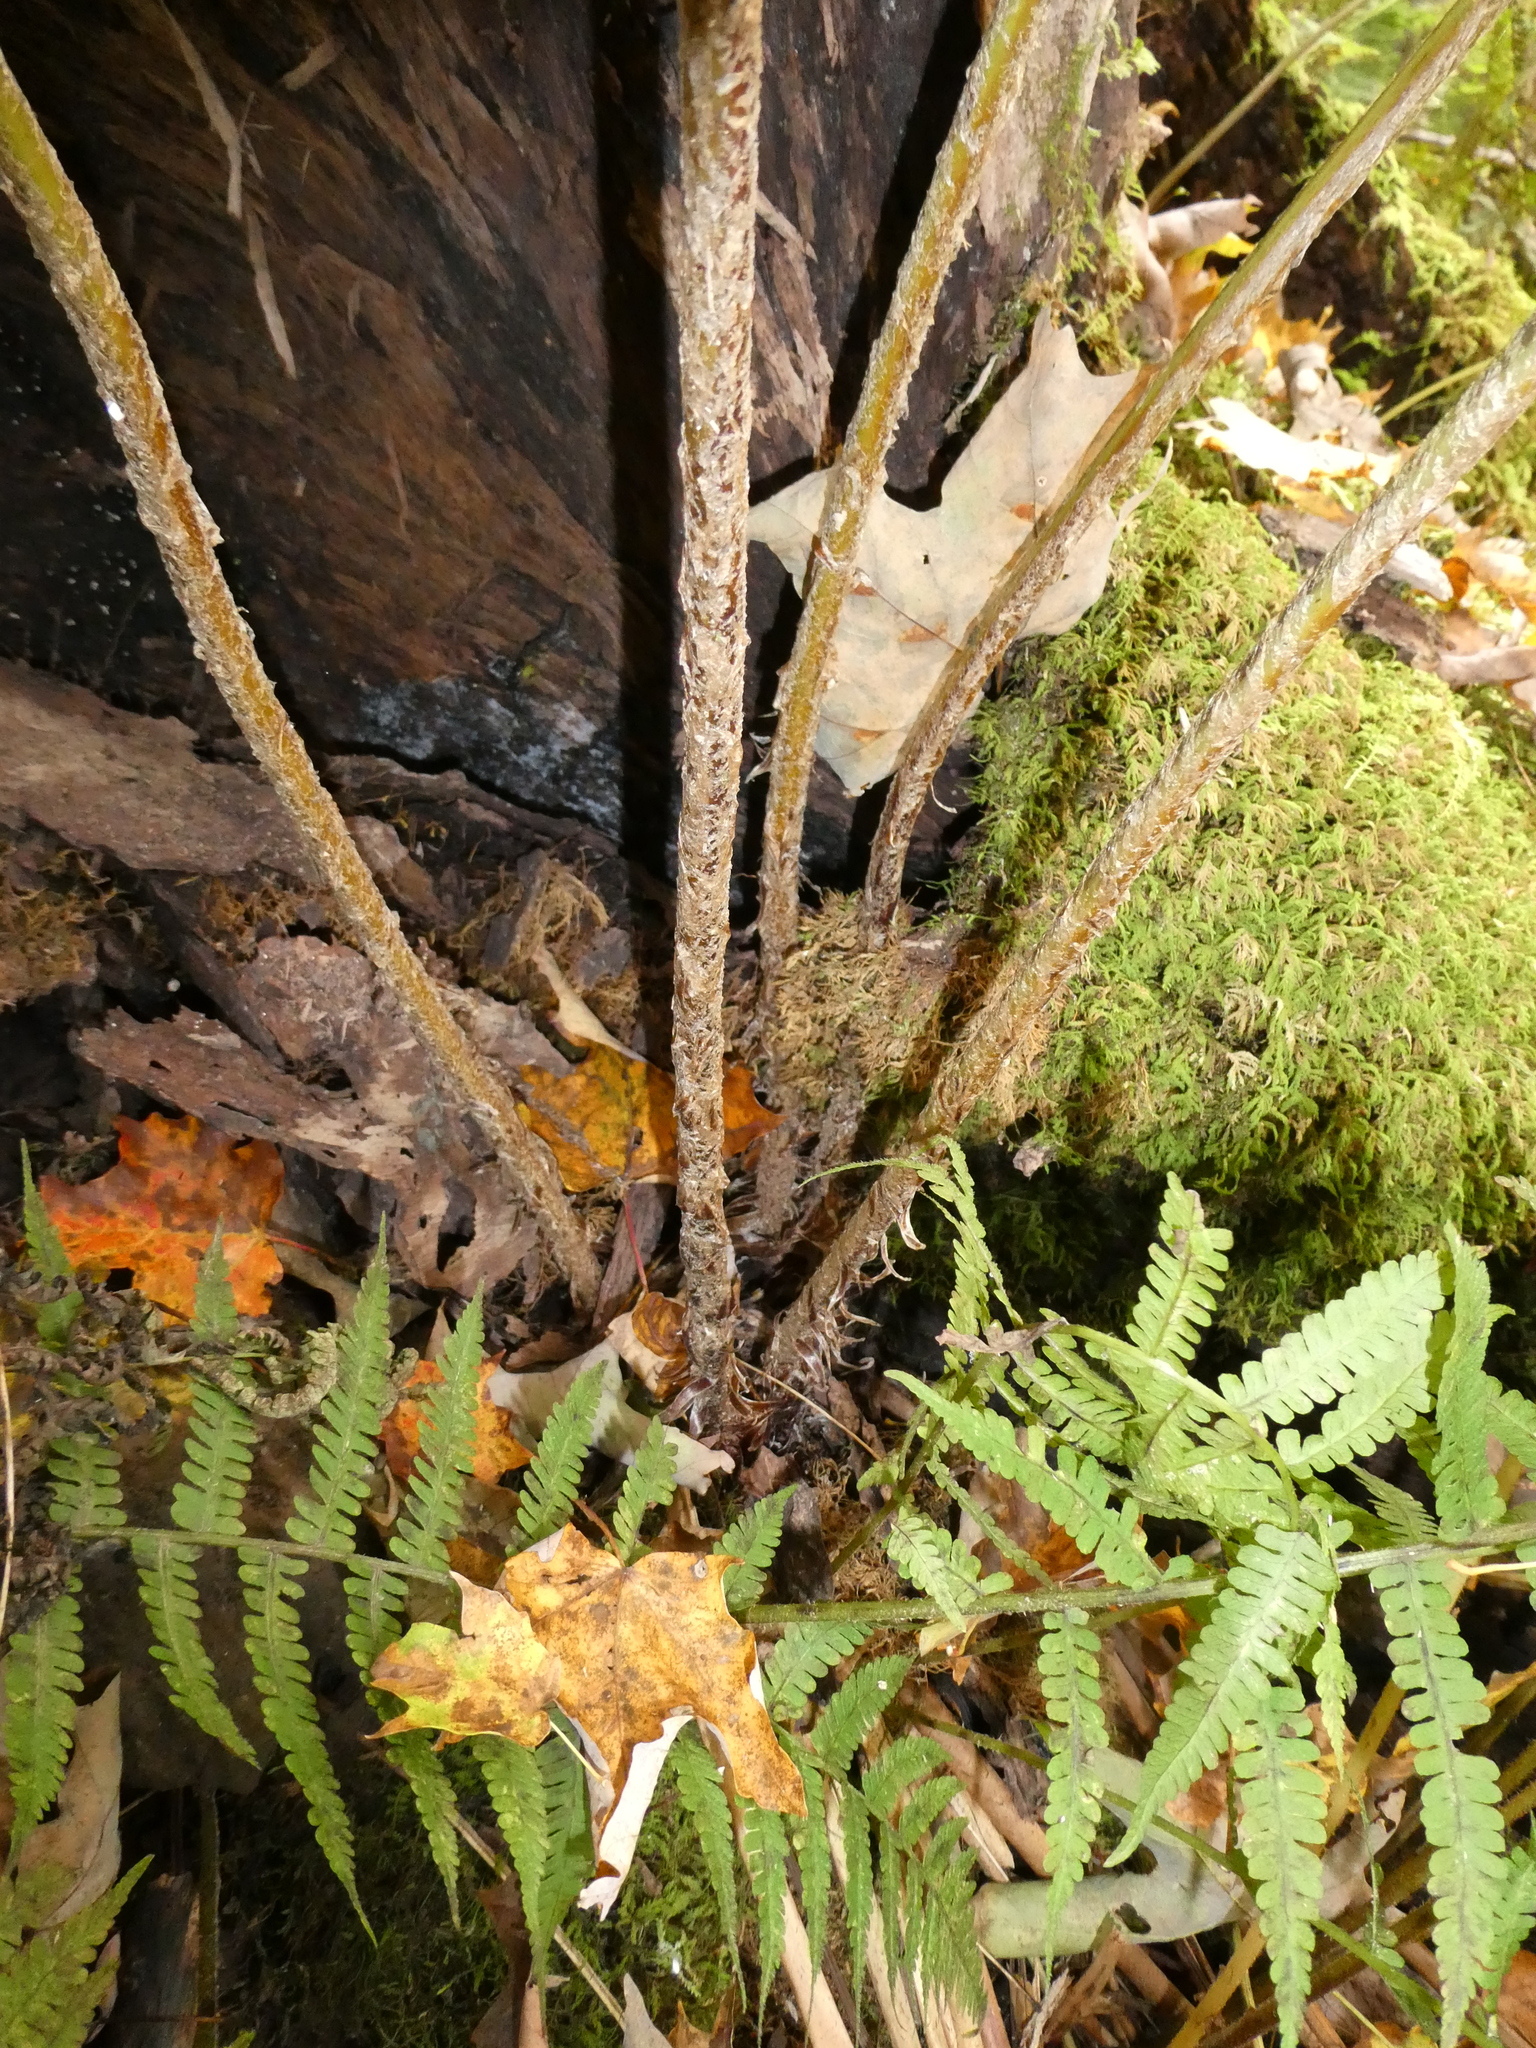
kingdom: Plantae
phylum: Tracheophyta
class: Polypodiopsida
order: Polypodiales
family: Dryopteridaceae
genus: Dryopteris
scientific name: Dryopteris goldieana
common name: Goldie's fern
